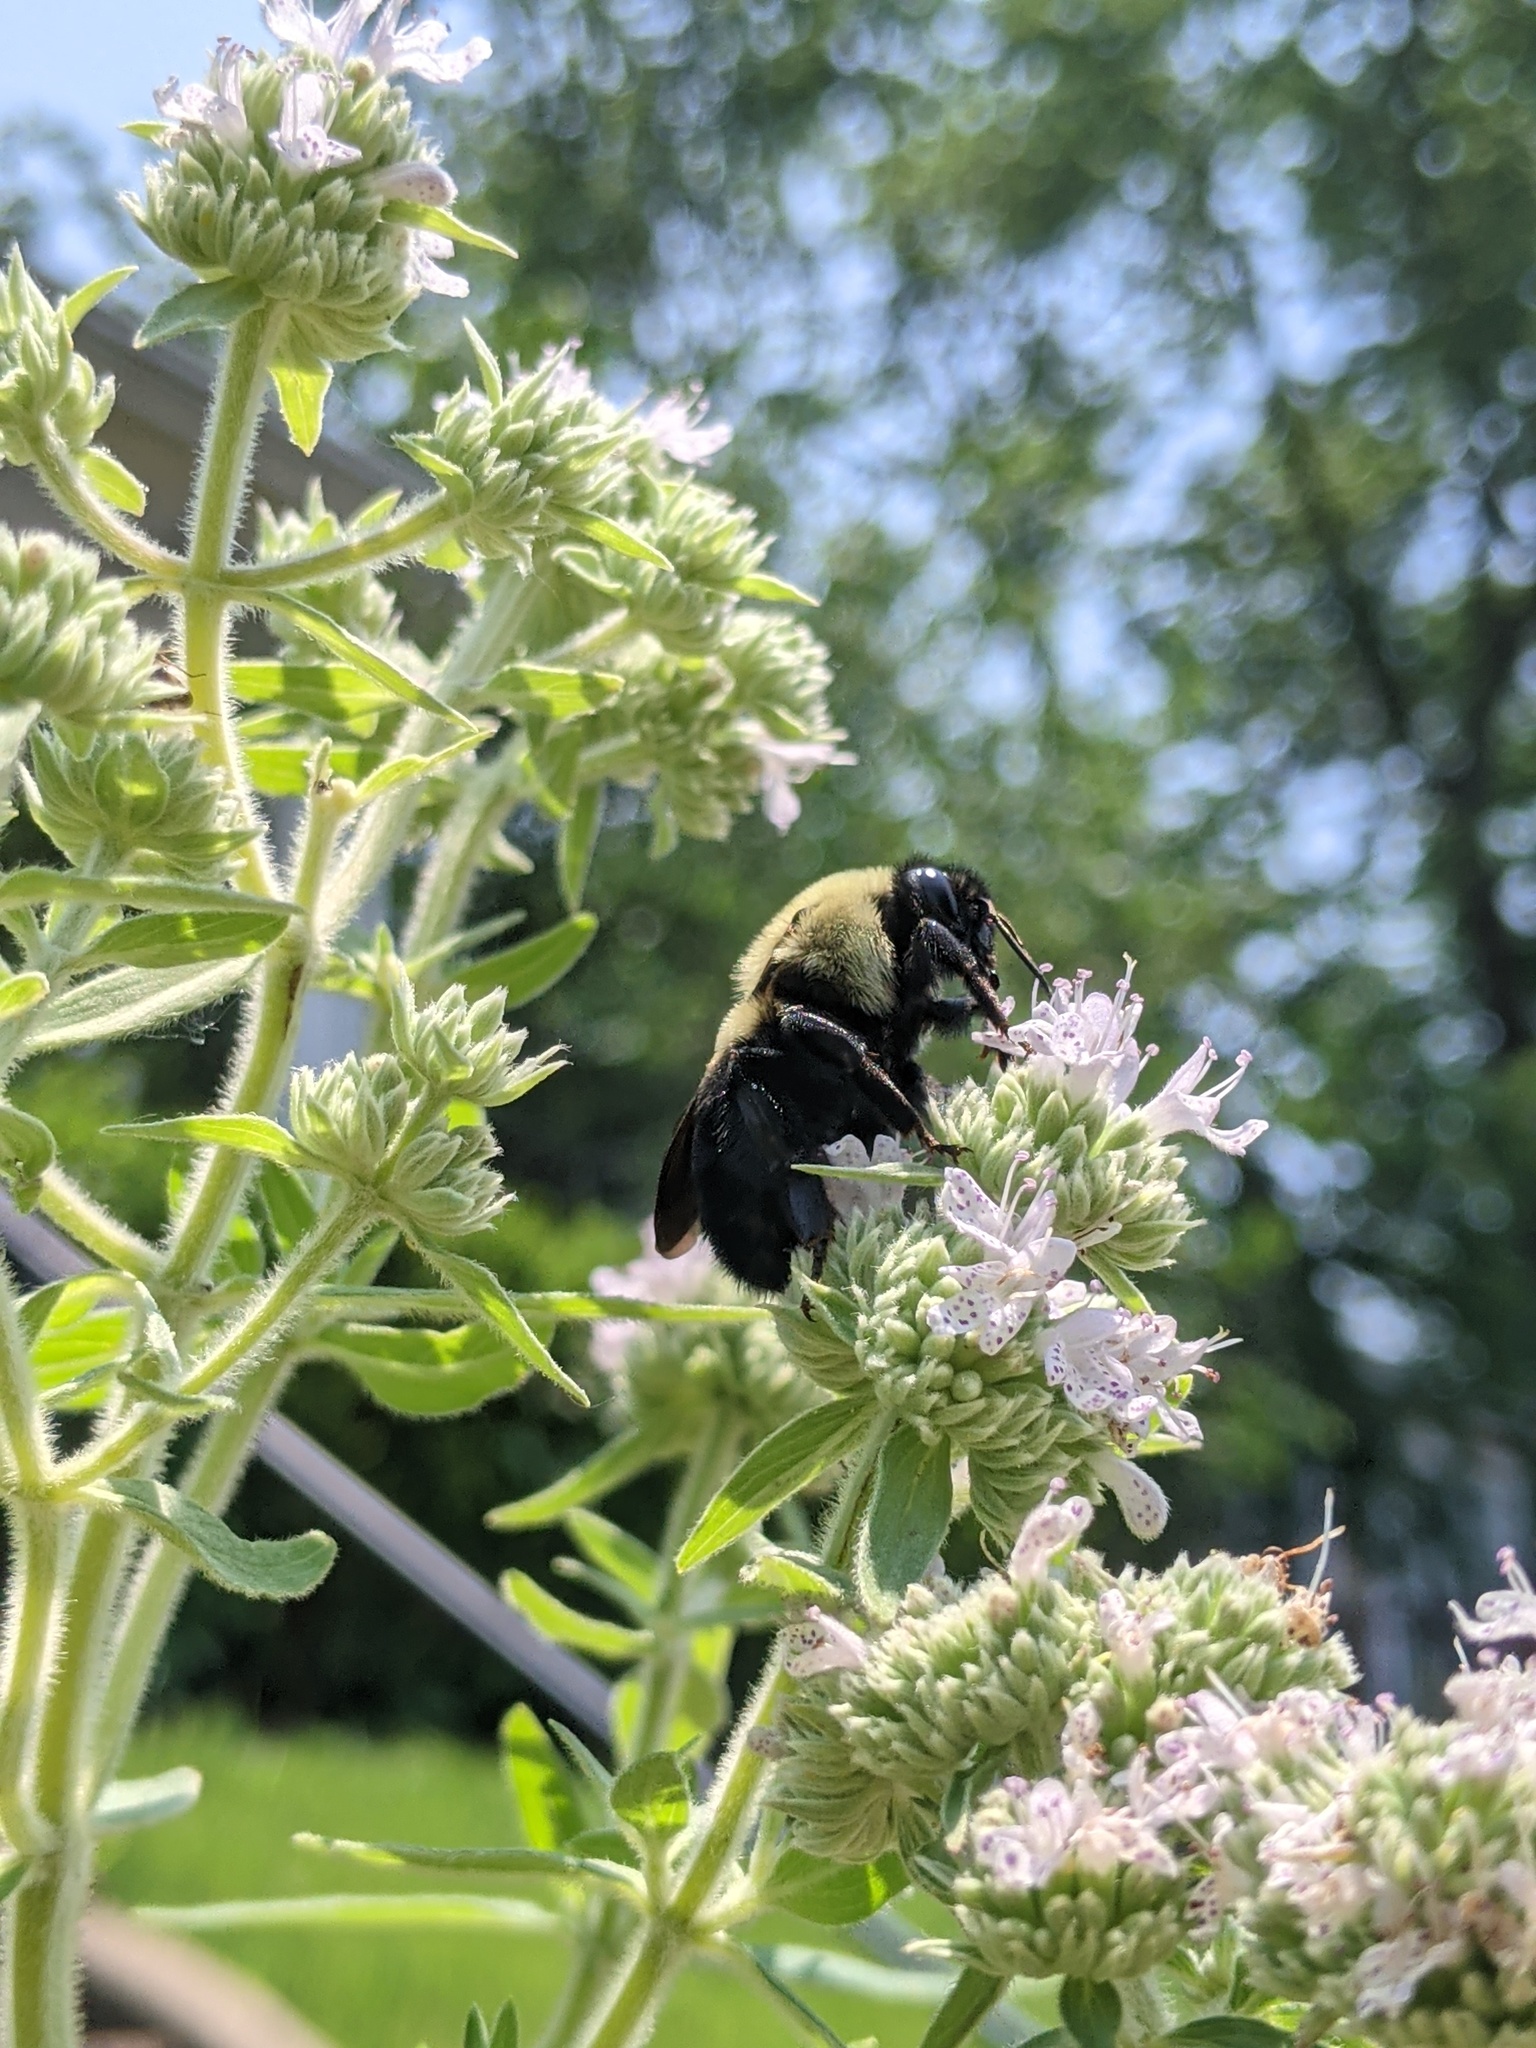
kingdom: Animalia
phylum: Arthropoda
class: Insecta
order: Hymenoptera
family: Apidae
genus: Bombus
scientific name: Bombus griseocollis
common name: Brown-belted bumble bee
